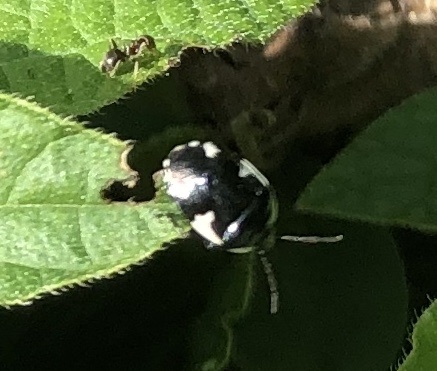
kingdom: Animalia
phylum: Arthropoda
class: Insecta
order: Hemiptera
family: Cydnidae
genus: Tritomegas
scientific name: Tritomegas sexmaculatus
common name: Rambur's pied shieldbug
